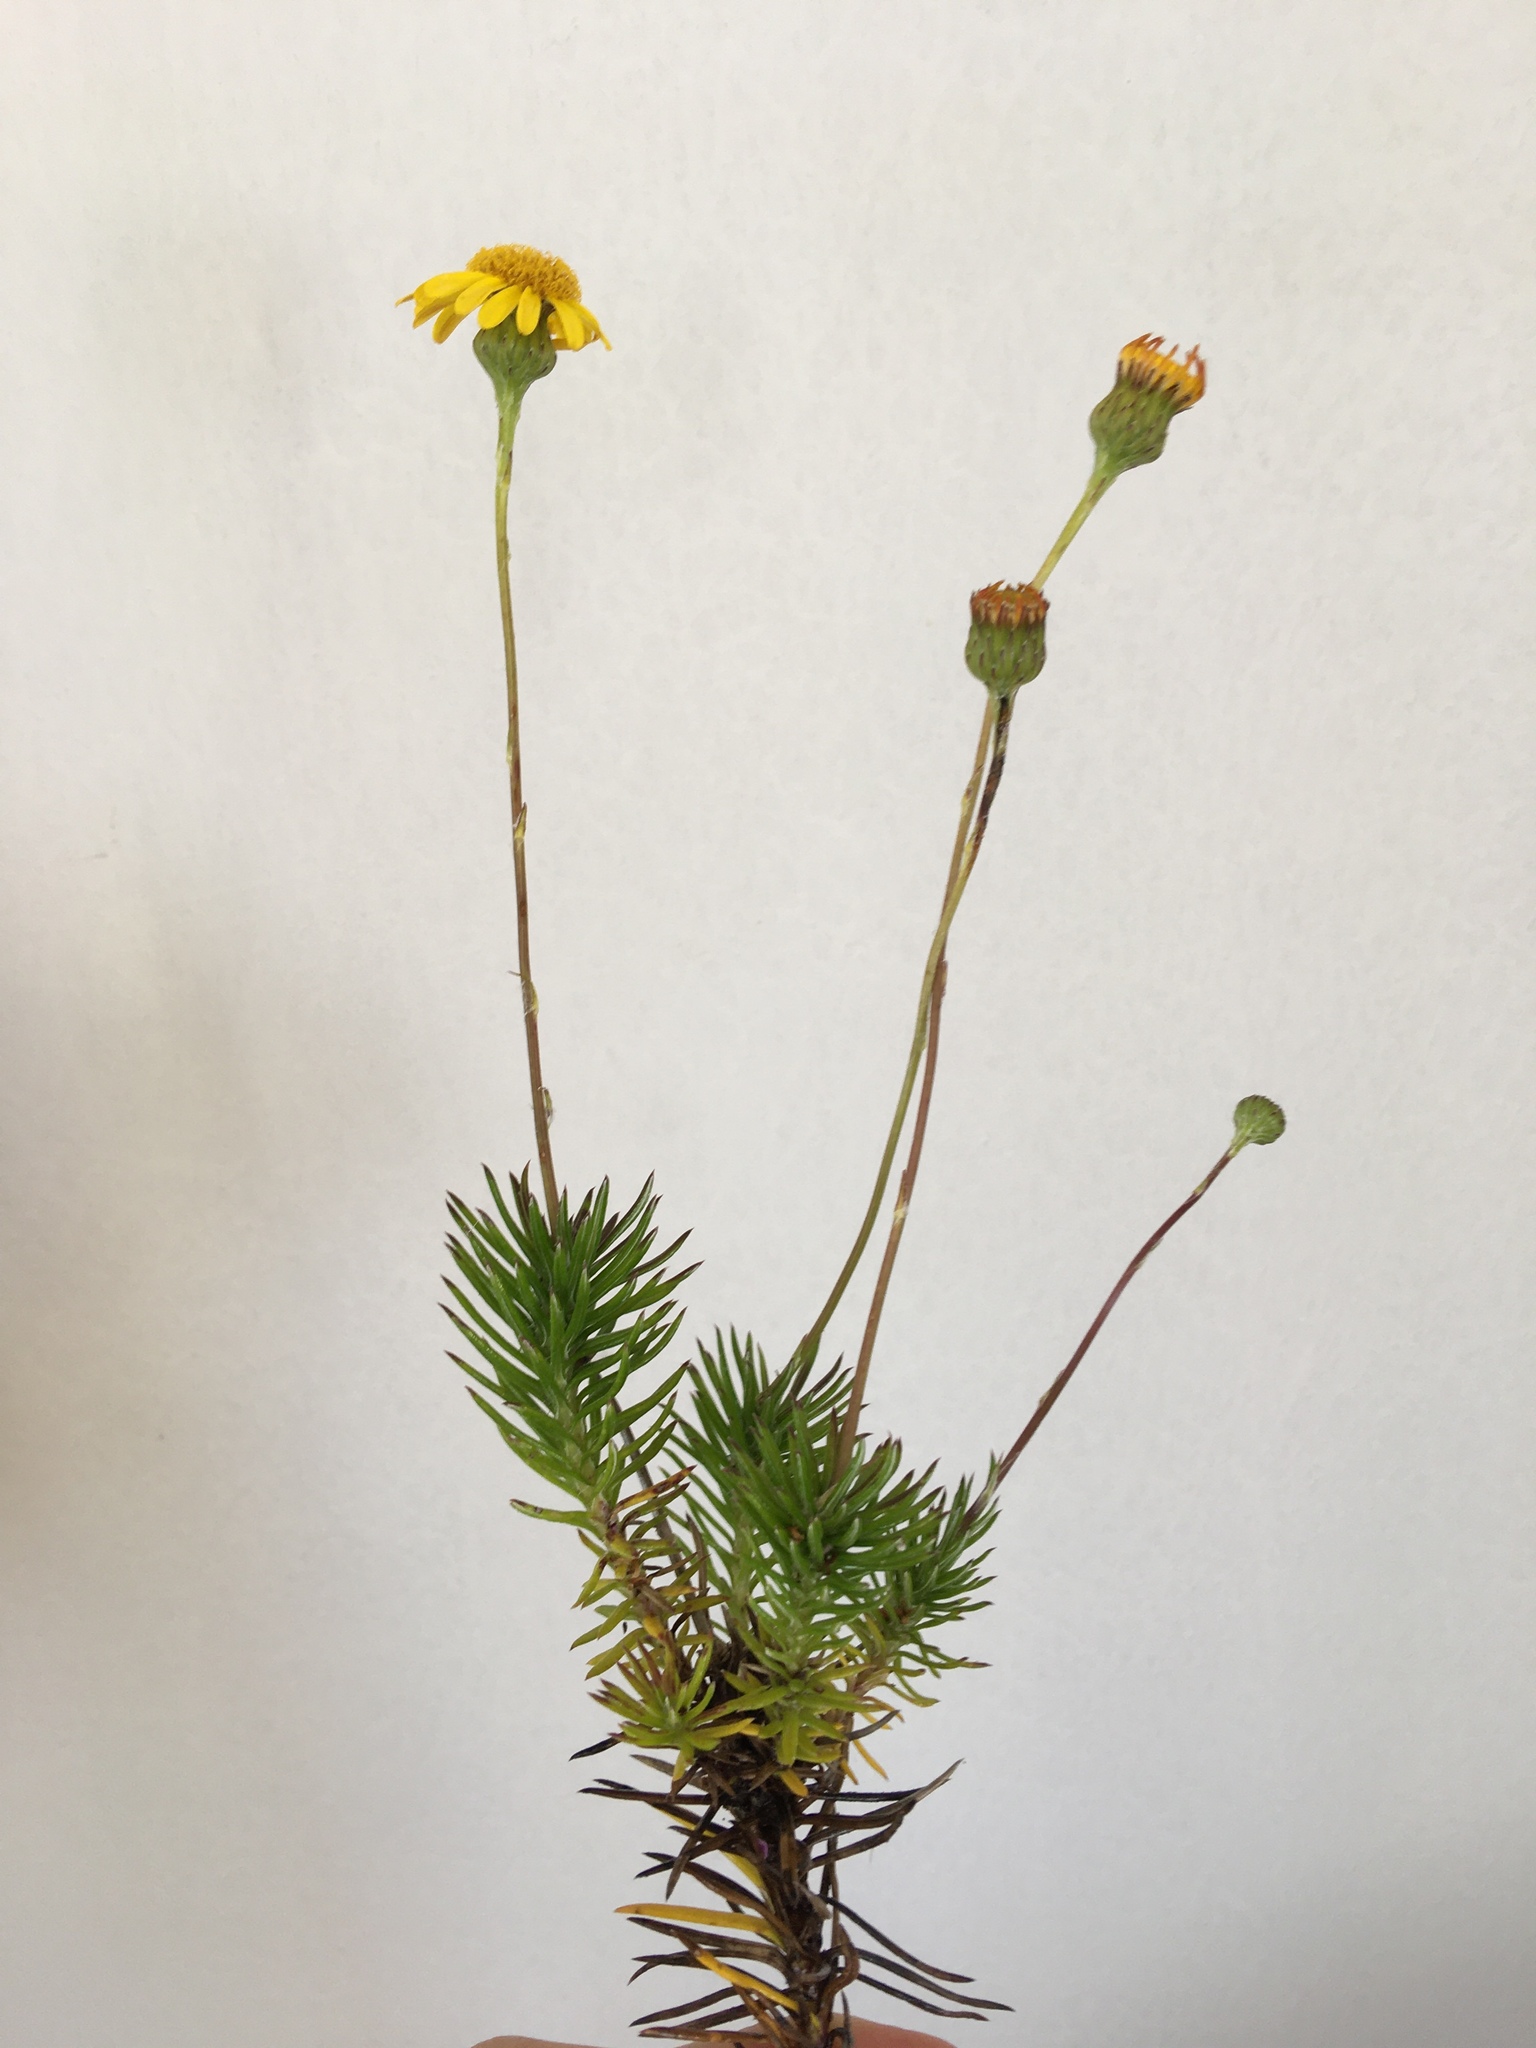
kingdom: Plantae
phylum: Tracheophyta
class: Magnoliopsida
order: Asterales
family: Asteraceae
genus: Senecio
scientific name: Senecio pillansii
